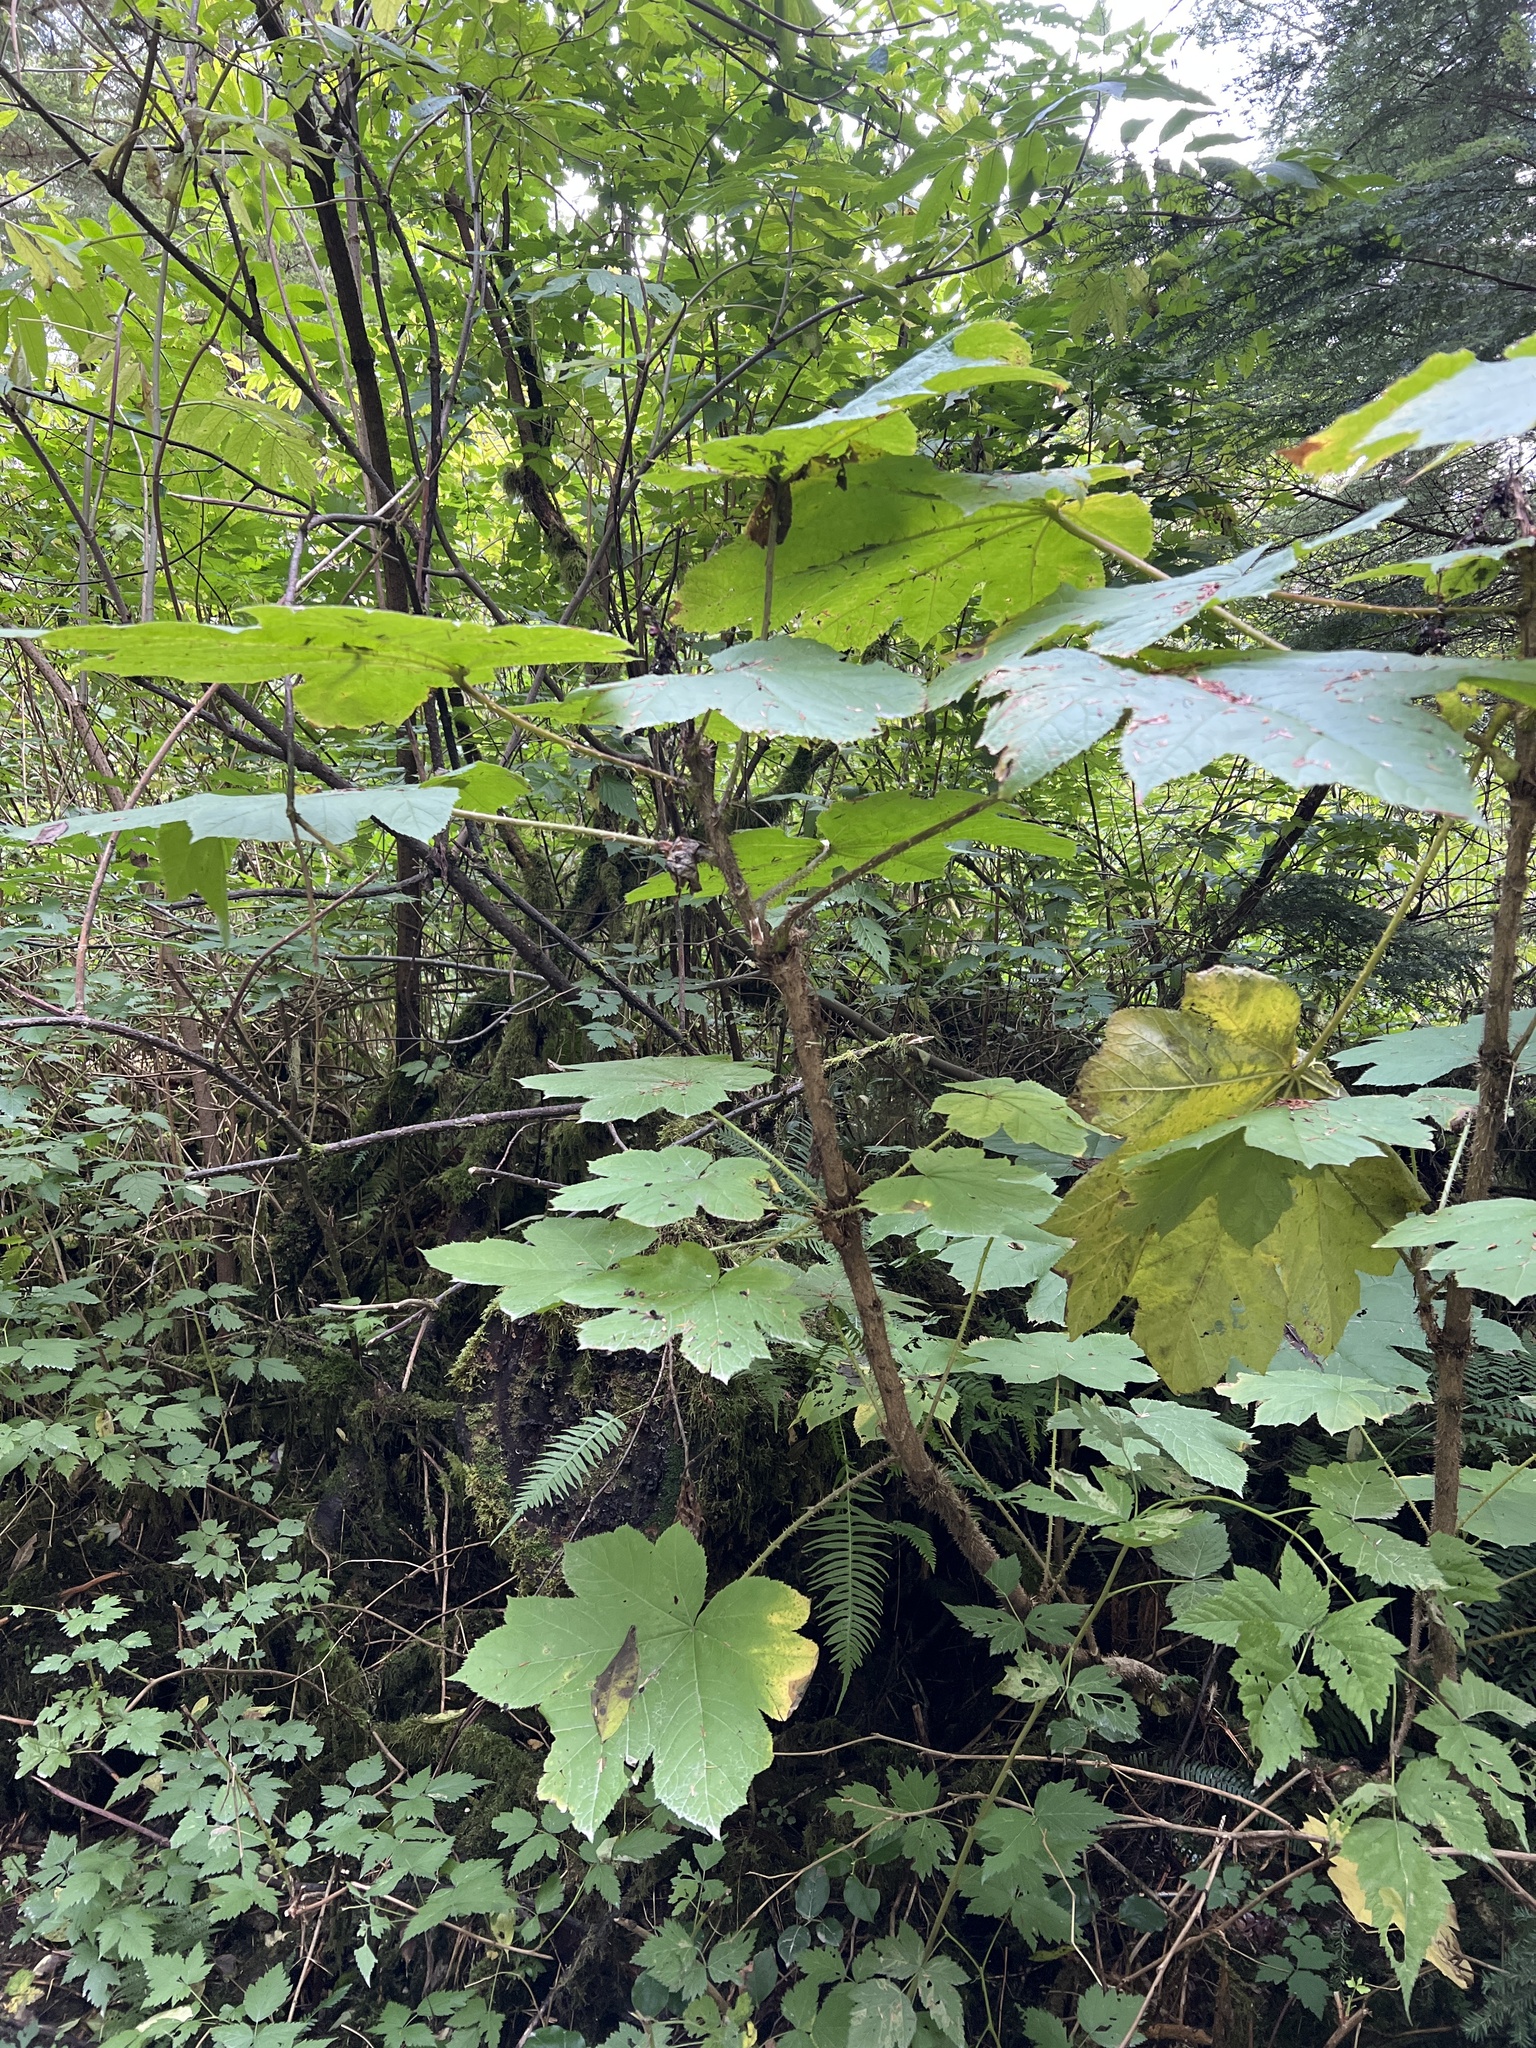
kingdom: Plantae
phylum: Tracheophyta
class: Magnoliopsida
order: Apiales
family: Araliaceae
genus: Oplopanax
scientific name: Oplopanax horridus
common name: Devil's walking-stick
